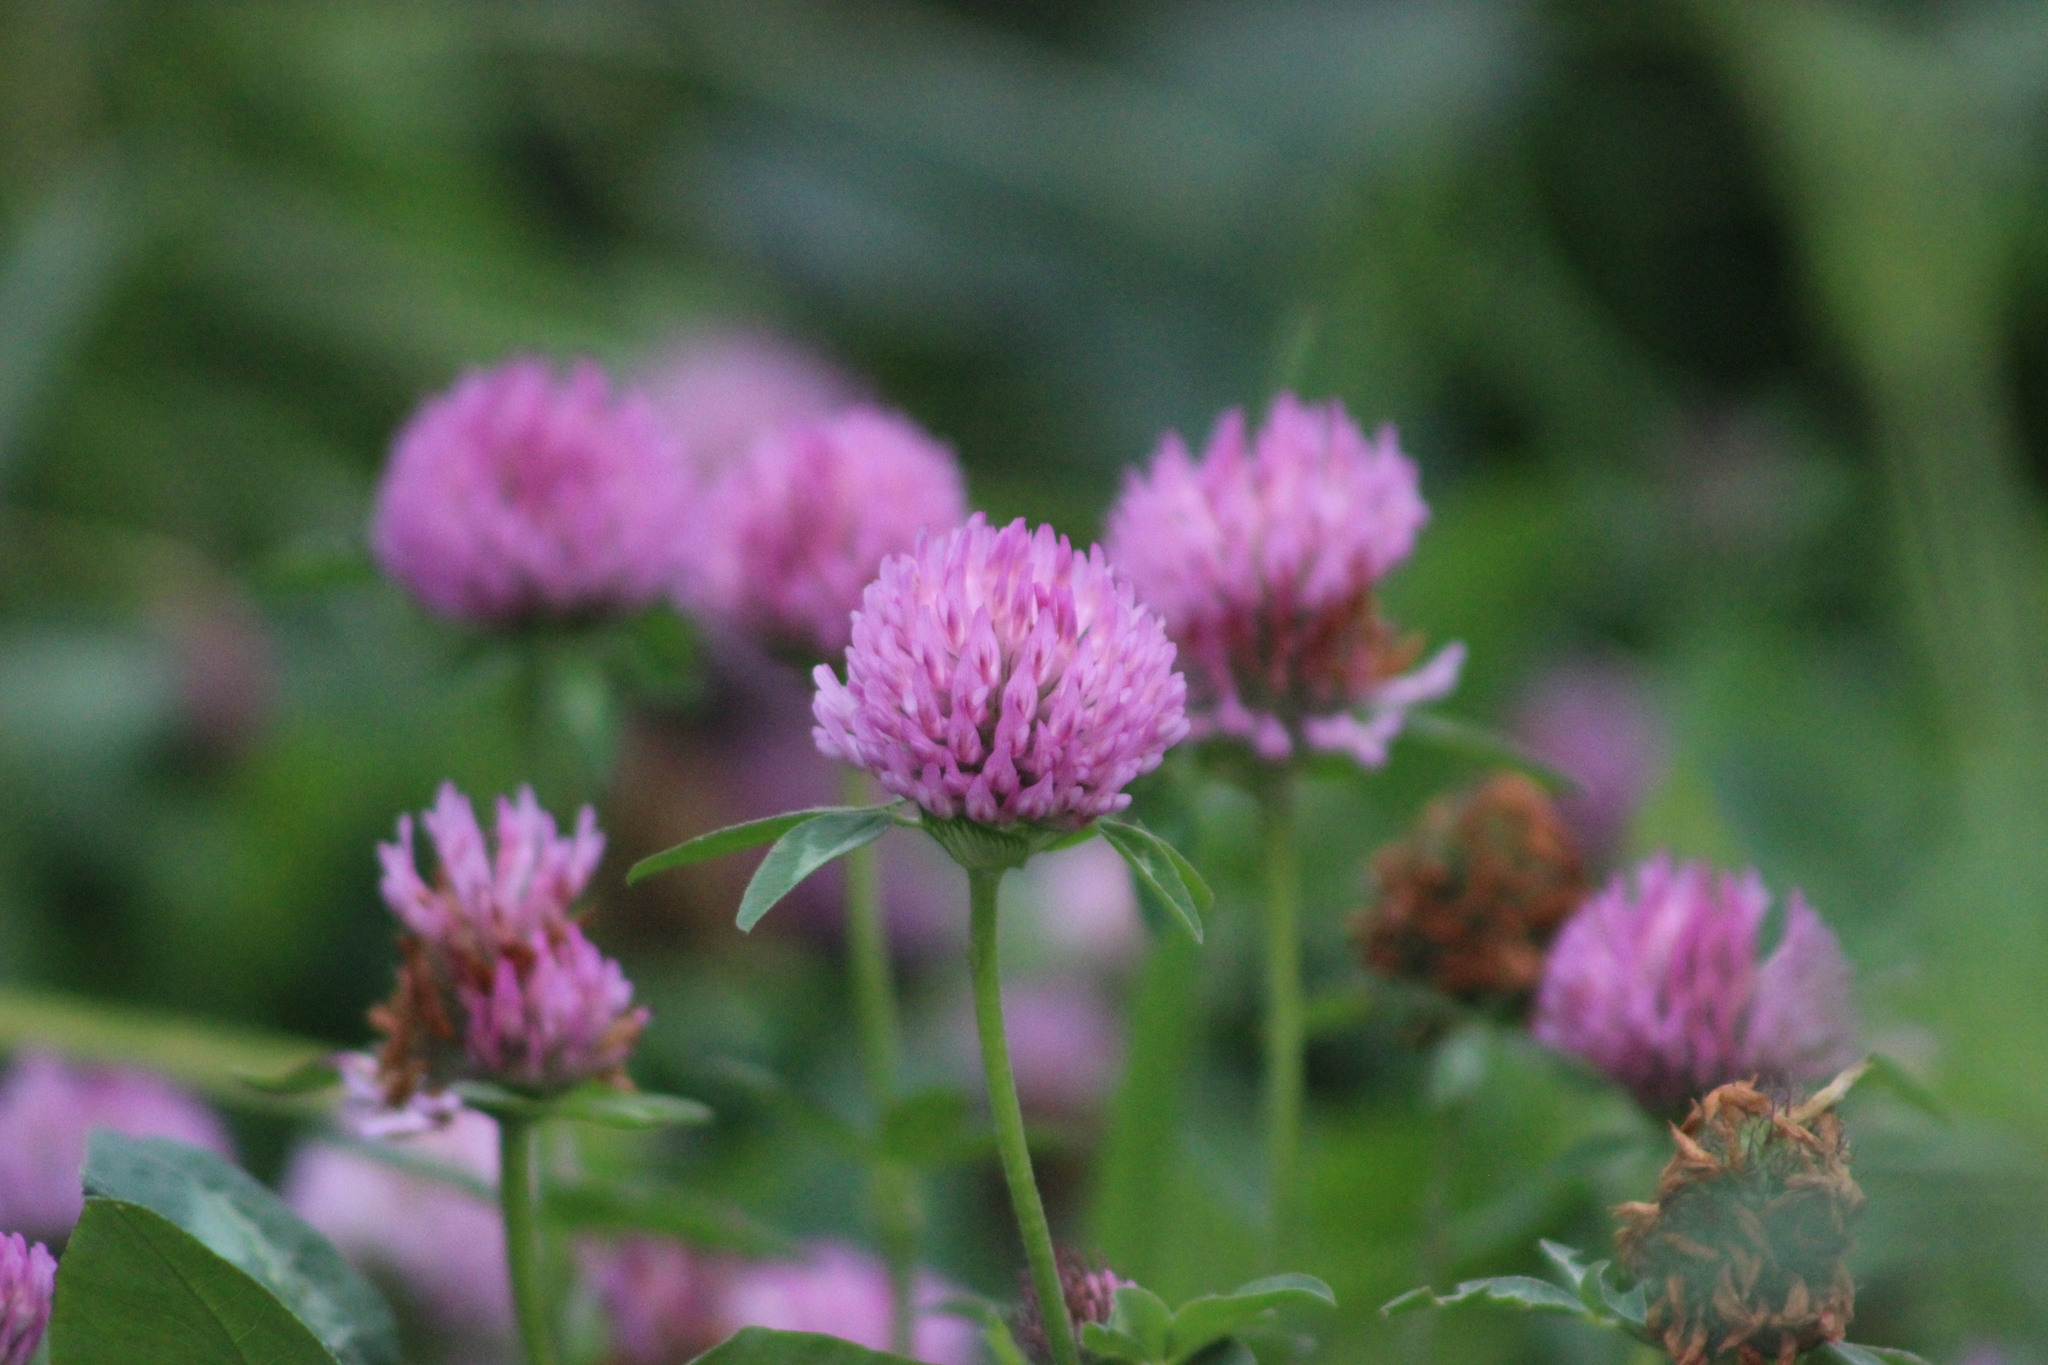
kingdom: Plantae
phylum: Tracheophyta
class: Magnoliopsida
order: Fabales
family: Fabaceae
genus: Trifolium
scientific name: Trifolium pratense
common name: Red clover
